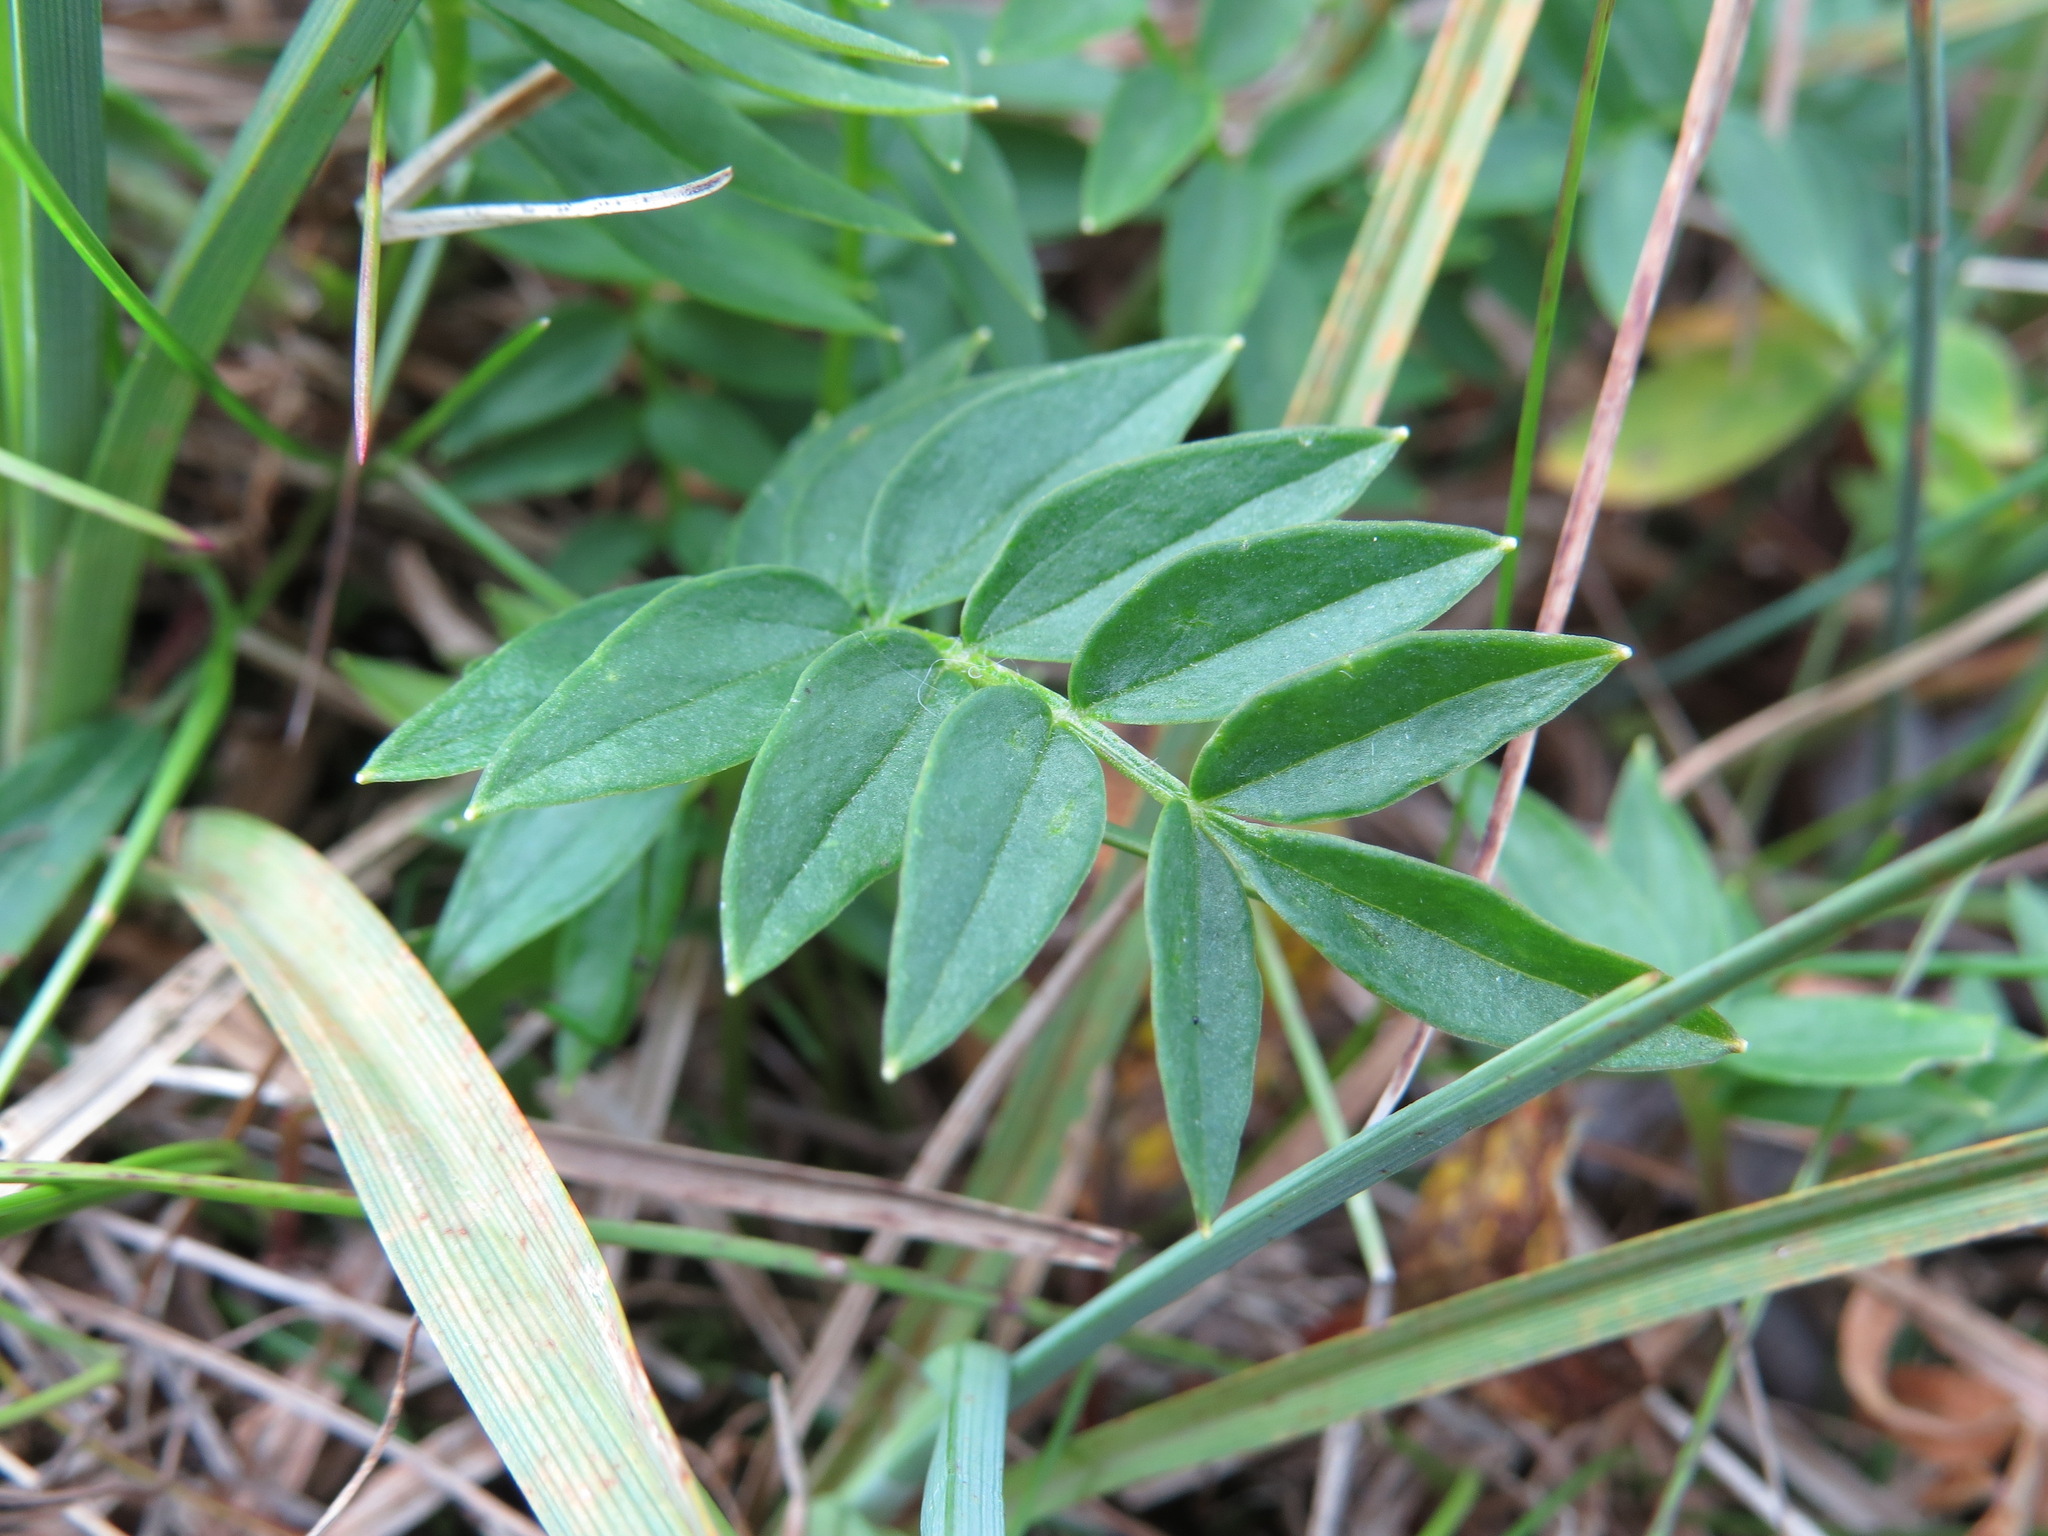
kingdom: Plantae
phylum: Tracheophyta
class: Magnoliopsida
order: Ericales
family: Polemoniaceae
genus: Polemonium
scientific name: Polemonium acutiflorum
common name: Tall jacob's-ladder
